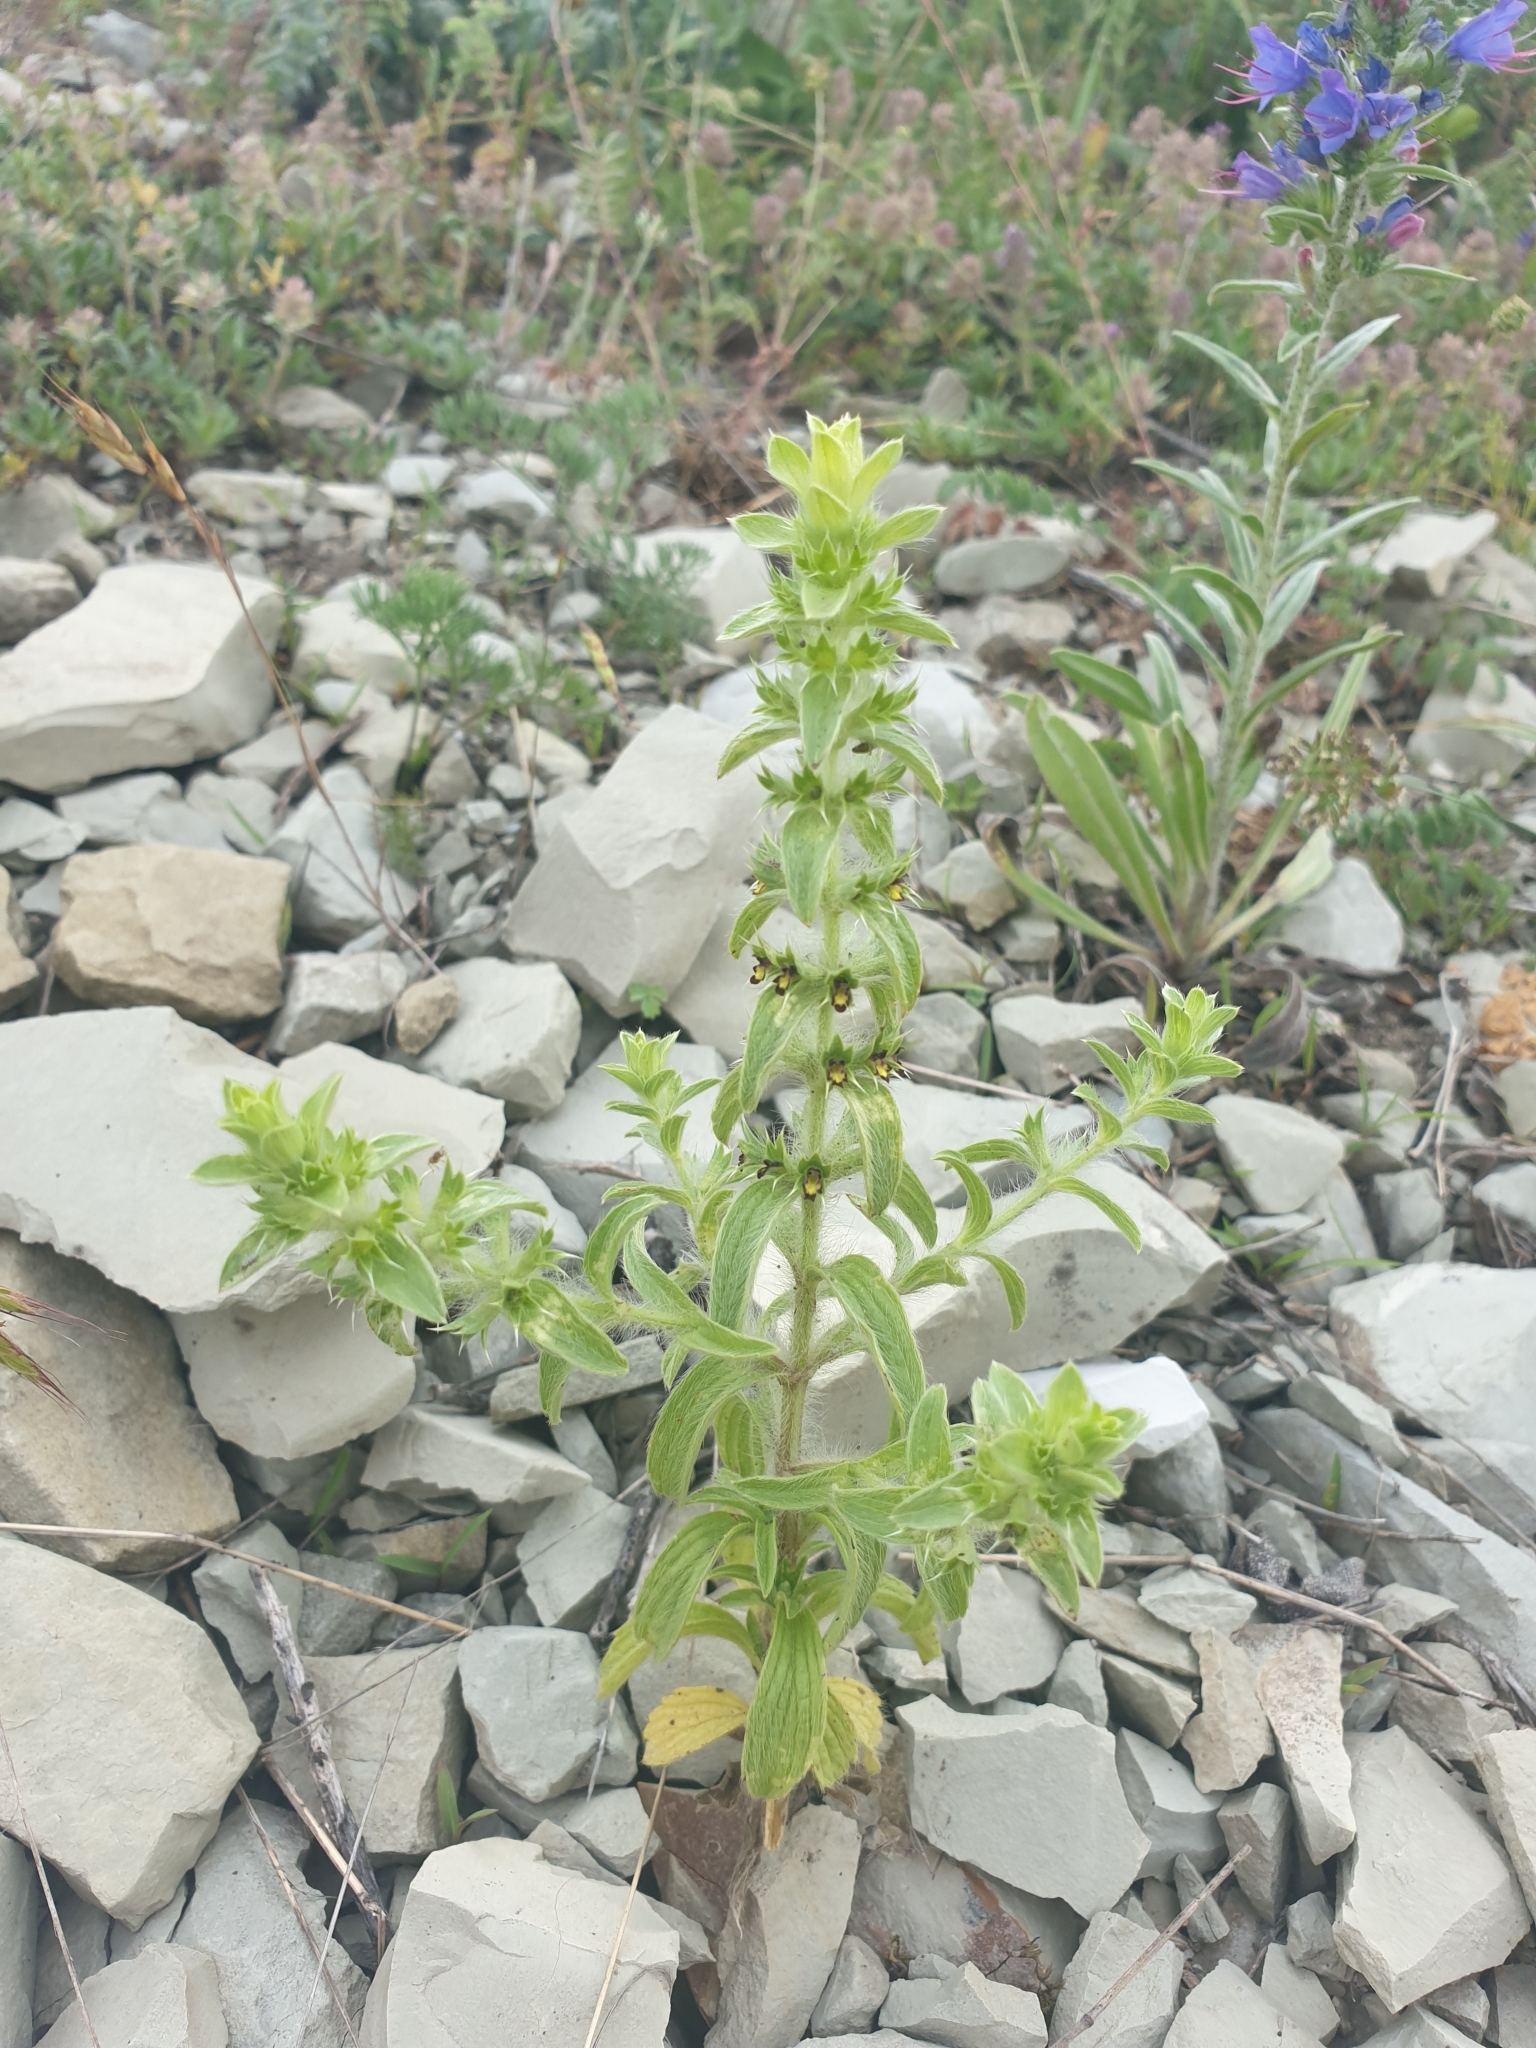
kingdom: Plantae
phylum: Tracheophyta
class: Magnoliopsida
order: Lamiales
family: Lamiaceae
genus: Sideritis
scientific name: Sideritis montana
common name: Mountain ironwort
